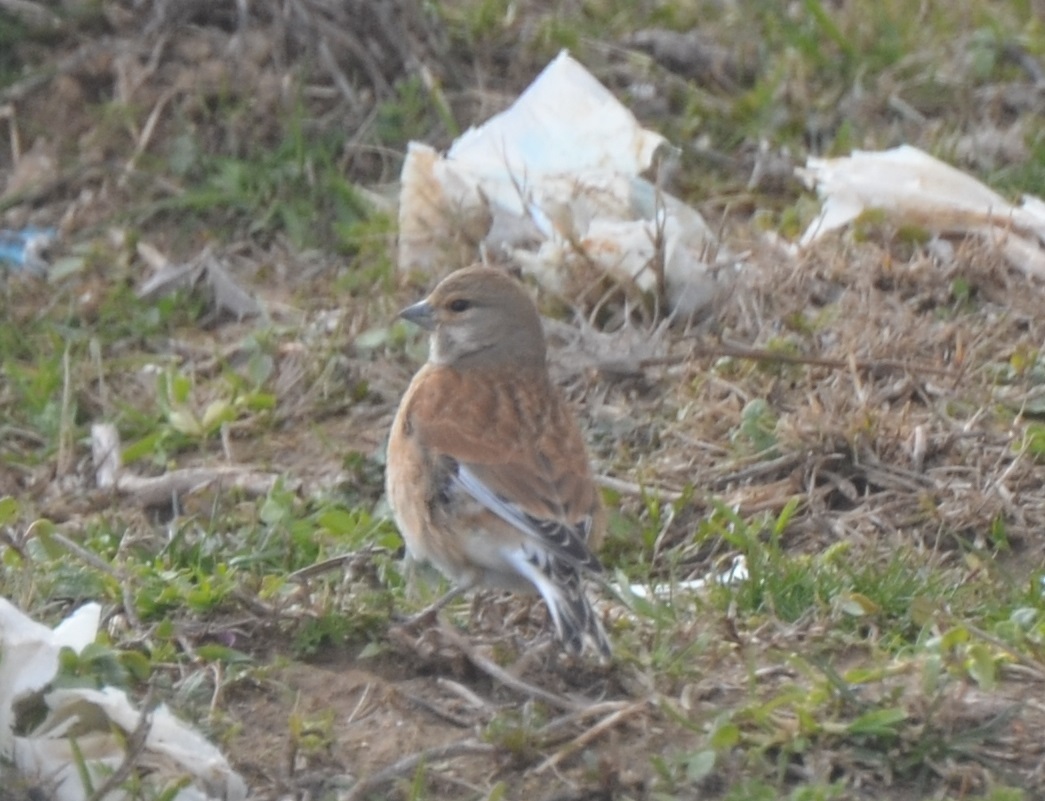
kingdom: Animalia
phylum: Chordata
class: Aves
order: Passeriformes
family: Fringillidae
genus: Linaria
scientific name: Linaria cannabina
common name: Common linnet
